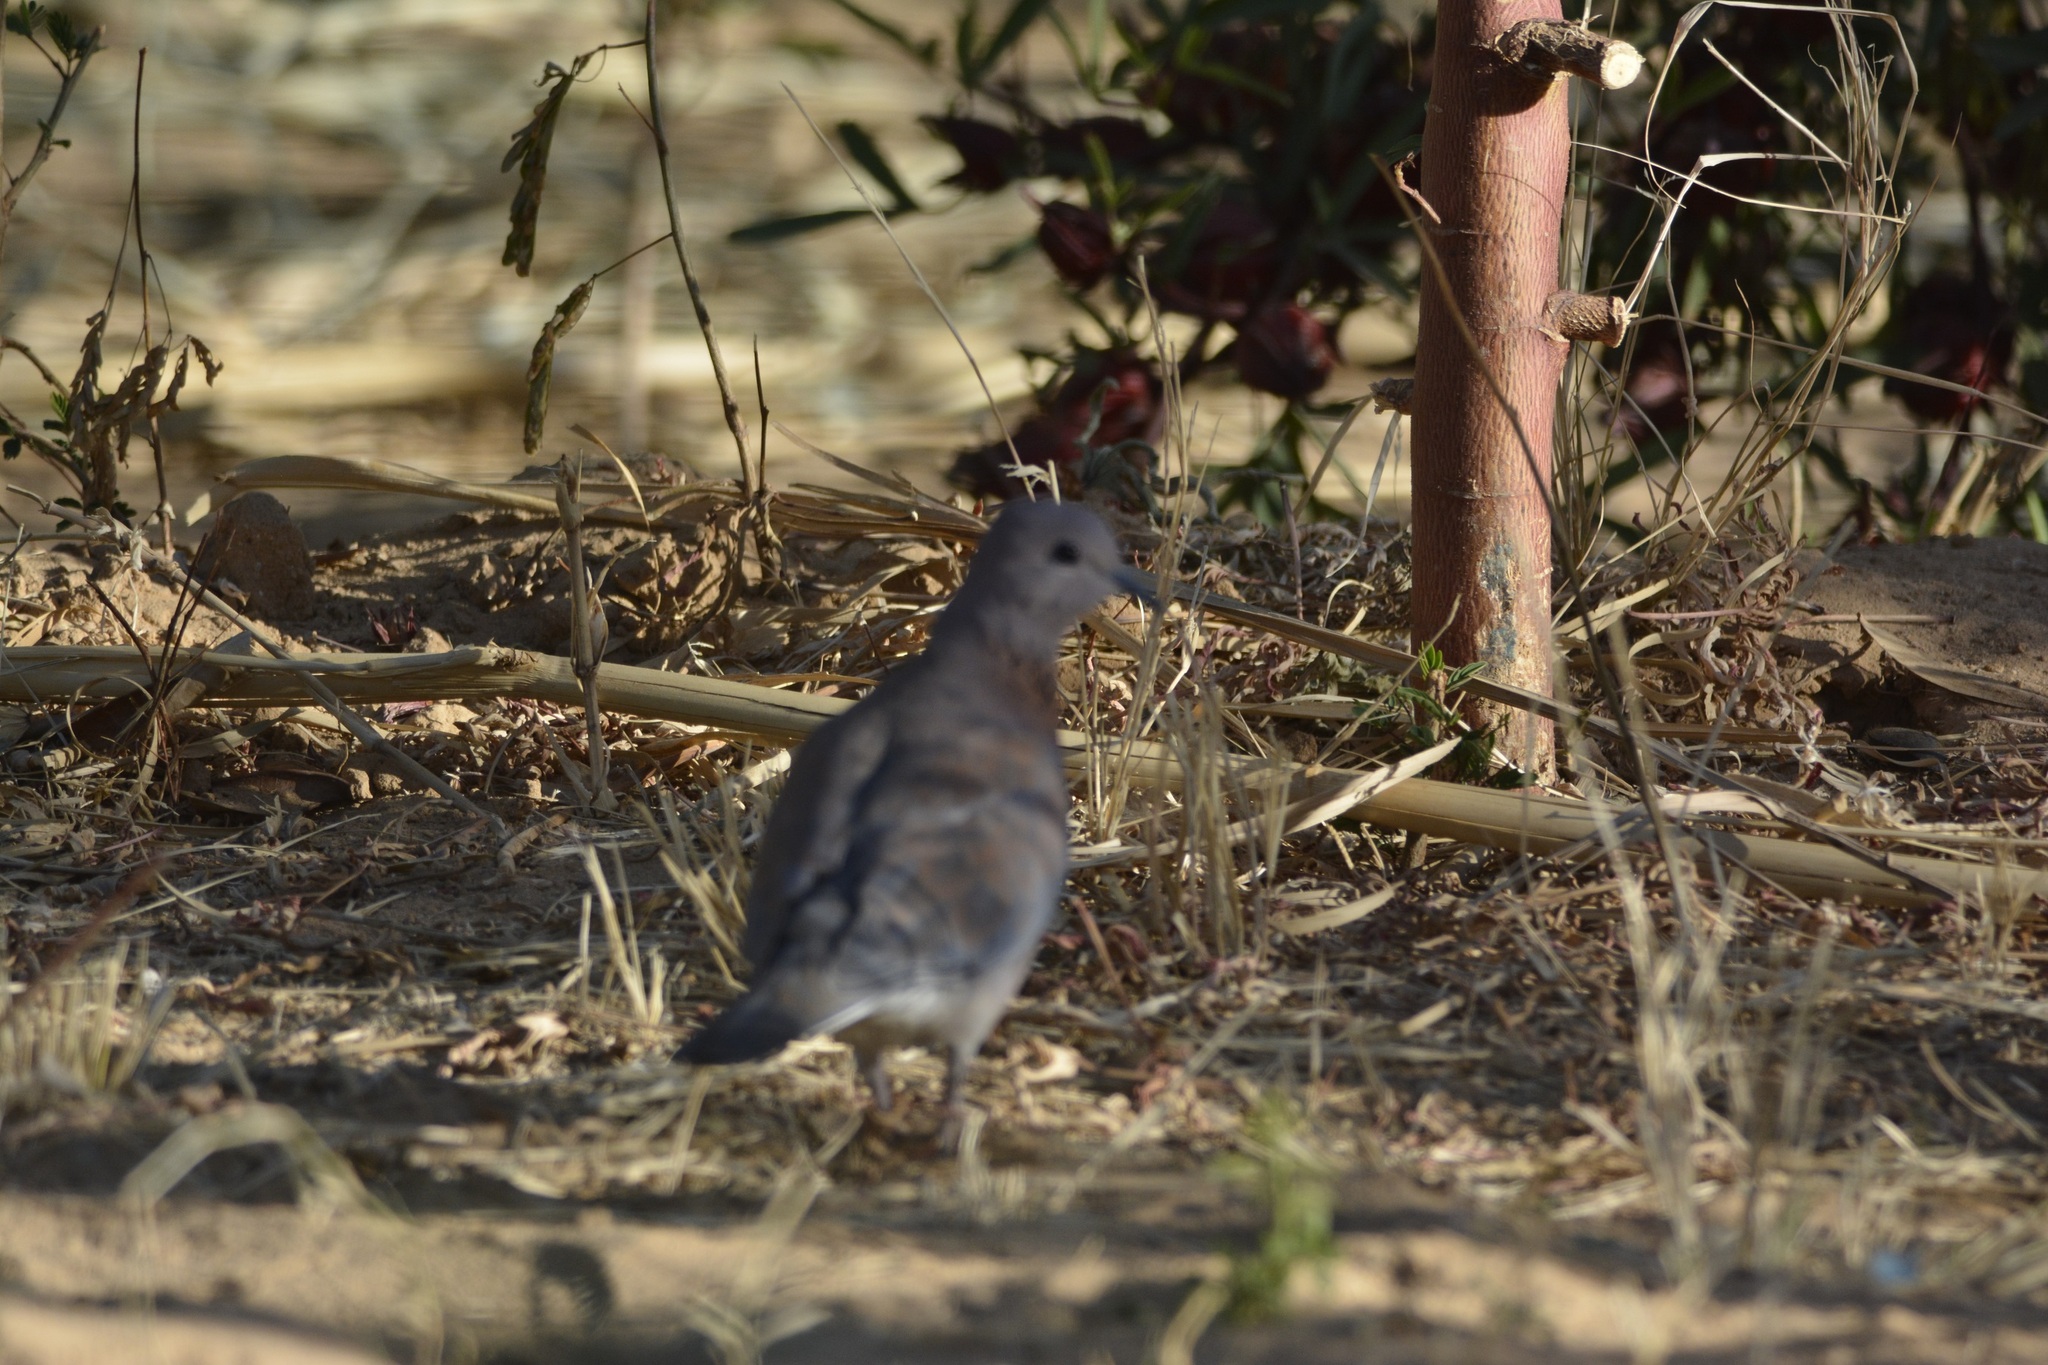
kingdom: Animalia
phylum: Chordata
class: Aves
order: Columbiformes
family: Columbidae
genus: Spilopelia
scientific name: Spilopelia senegalensis
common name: Laughing dove
